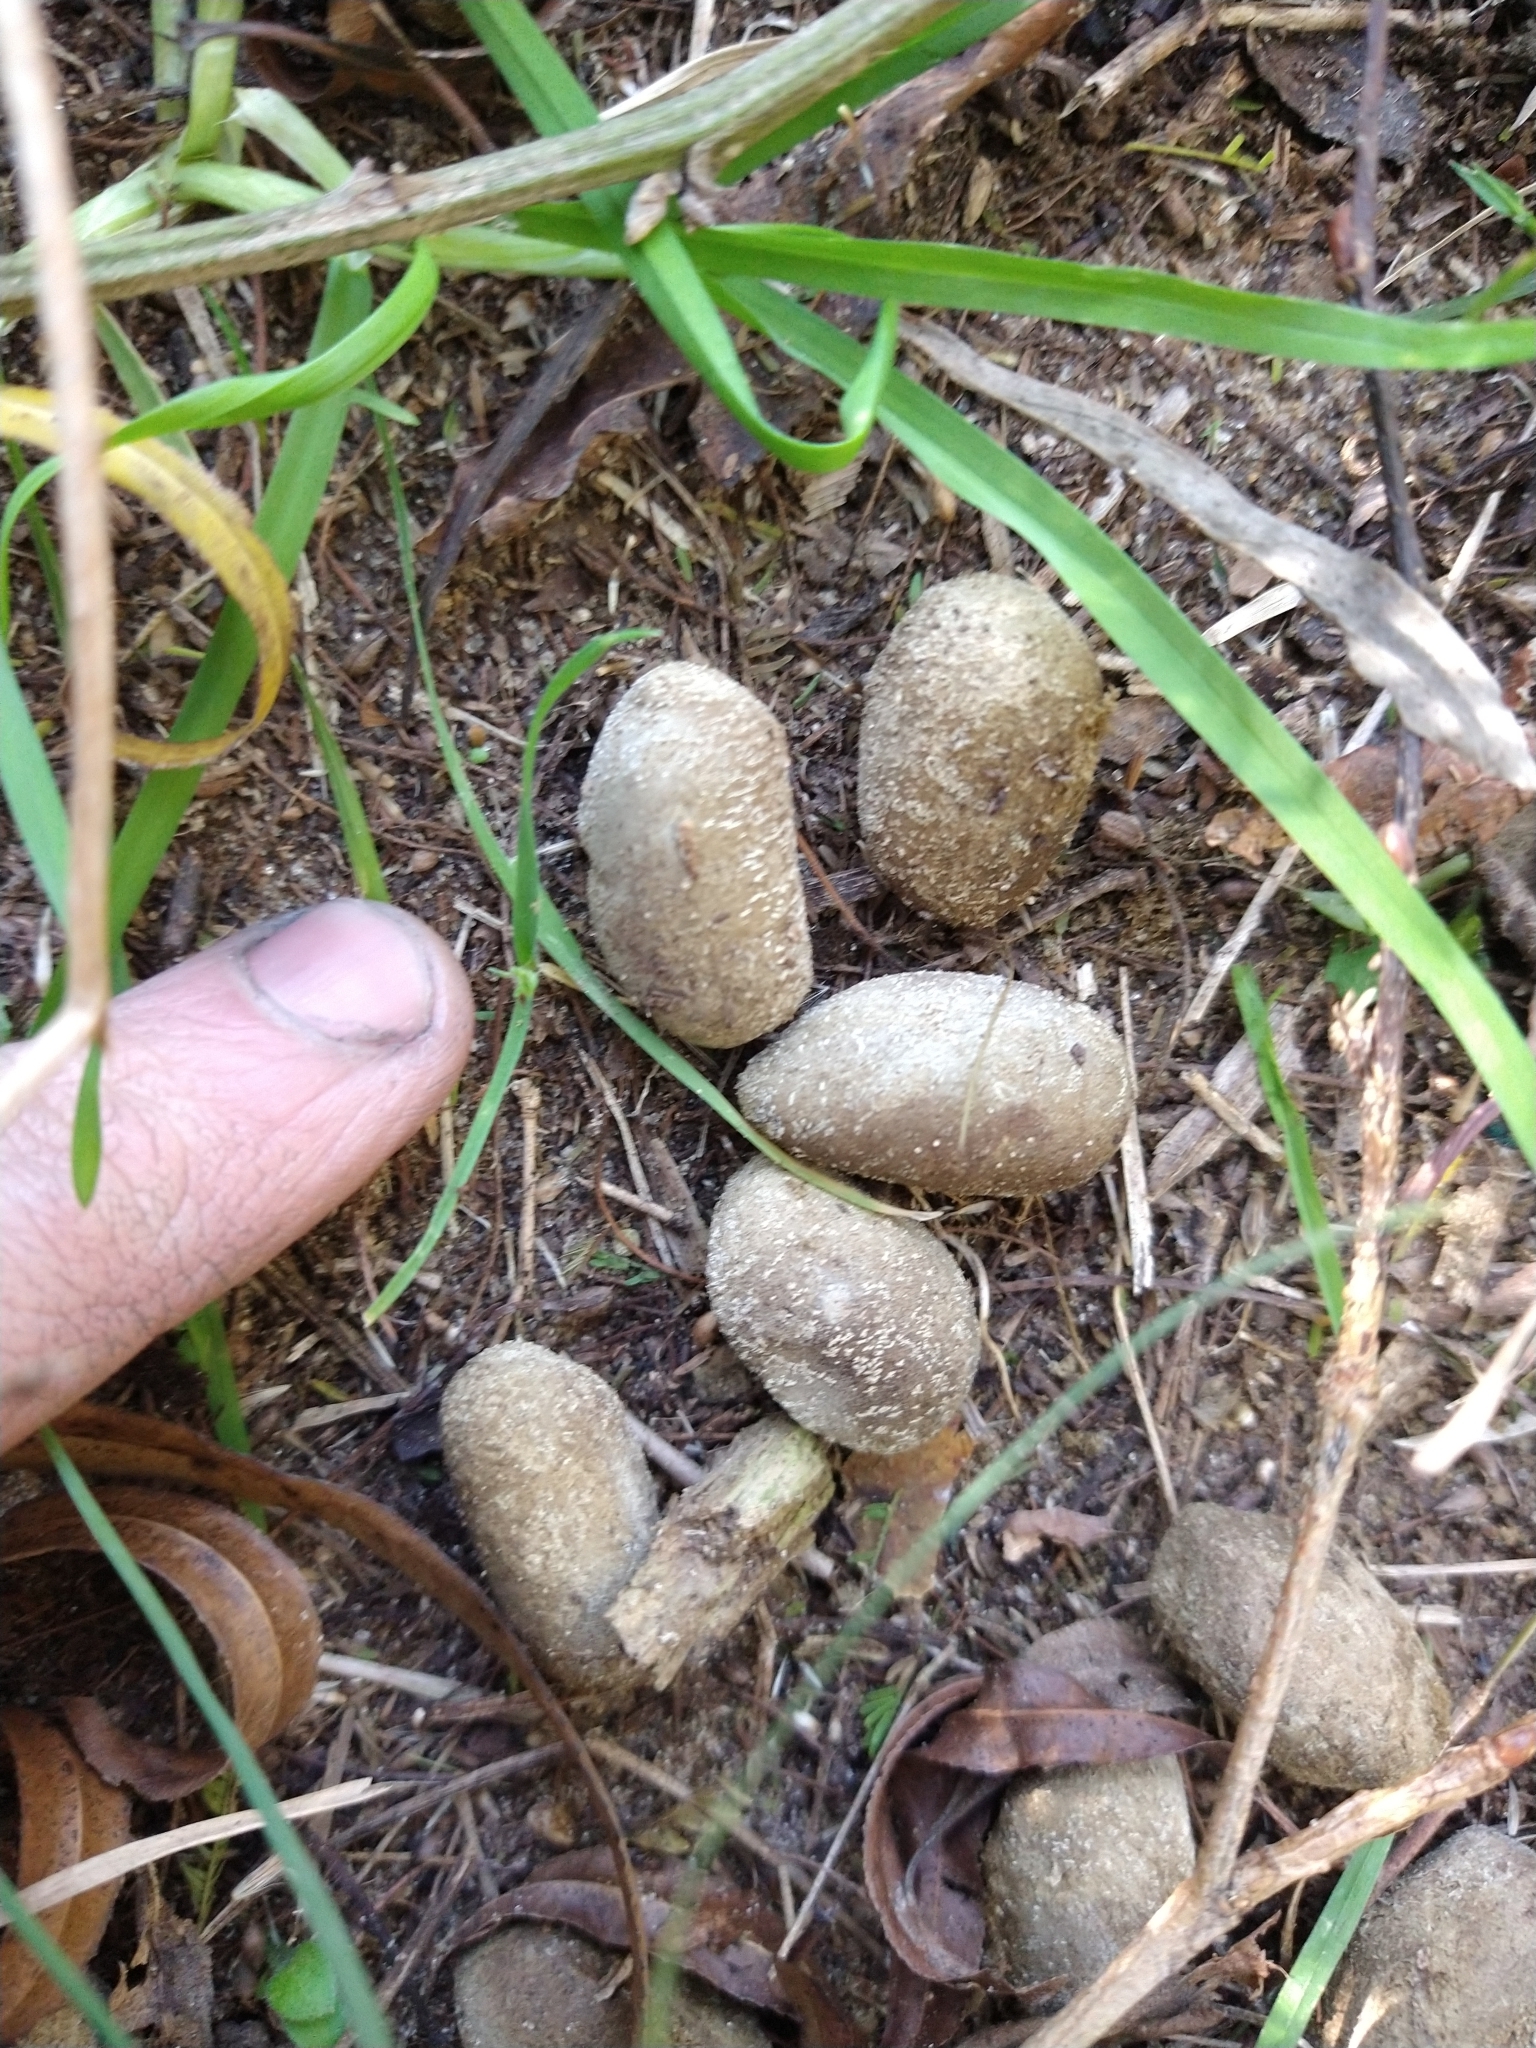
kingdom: Animalia
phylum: Chordata
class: Mammalia
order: Rodentia
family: Caviidae
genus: Hydrochoerus
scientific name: Hydrochoerus hydrochaeris
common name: Capybara
